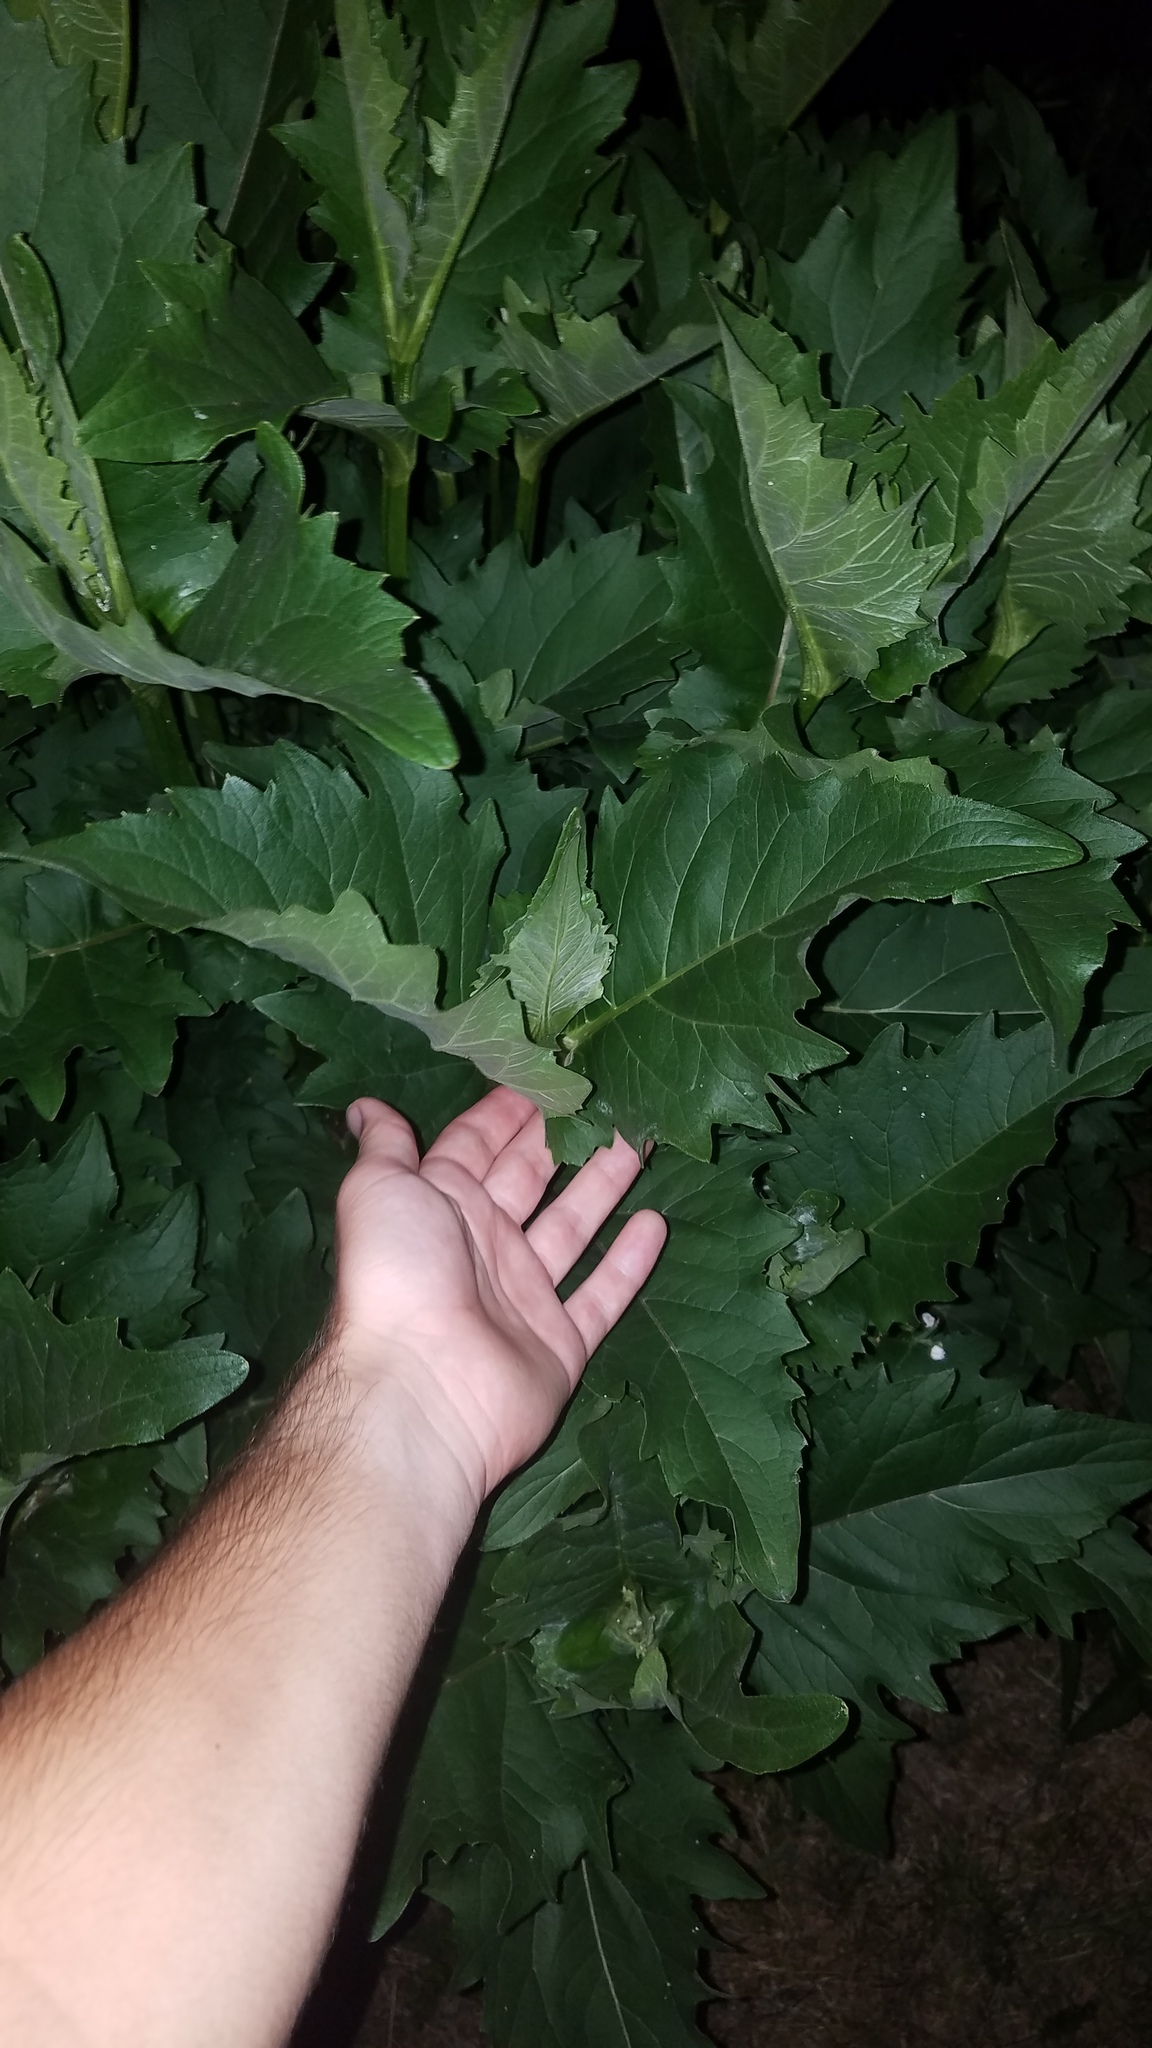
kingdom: Plantae
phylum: Tracheophyta
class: Magnoliopsida
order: Asterales
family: Asteraceae
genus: Silphium
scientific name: Silphium perfoliatum
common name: Cup-plant
